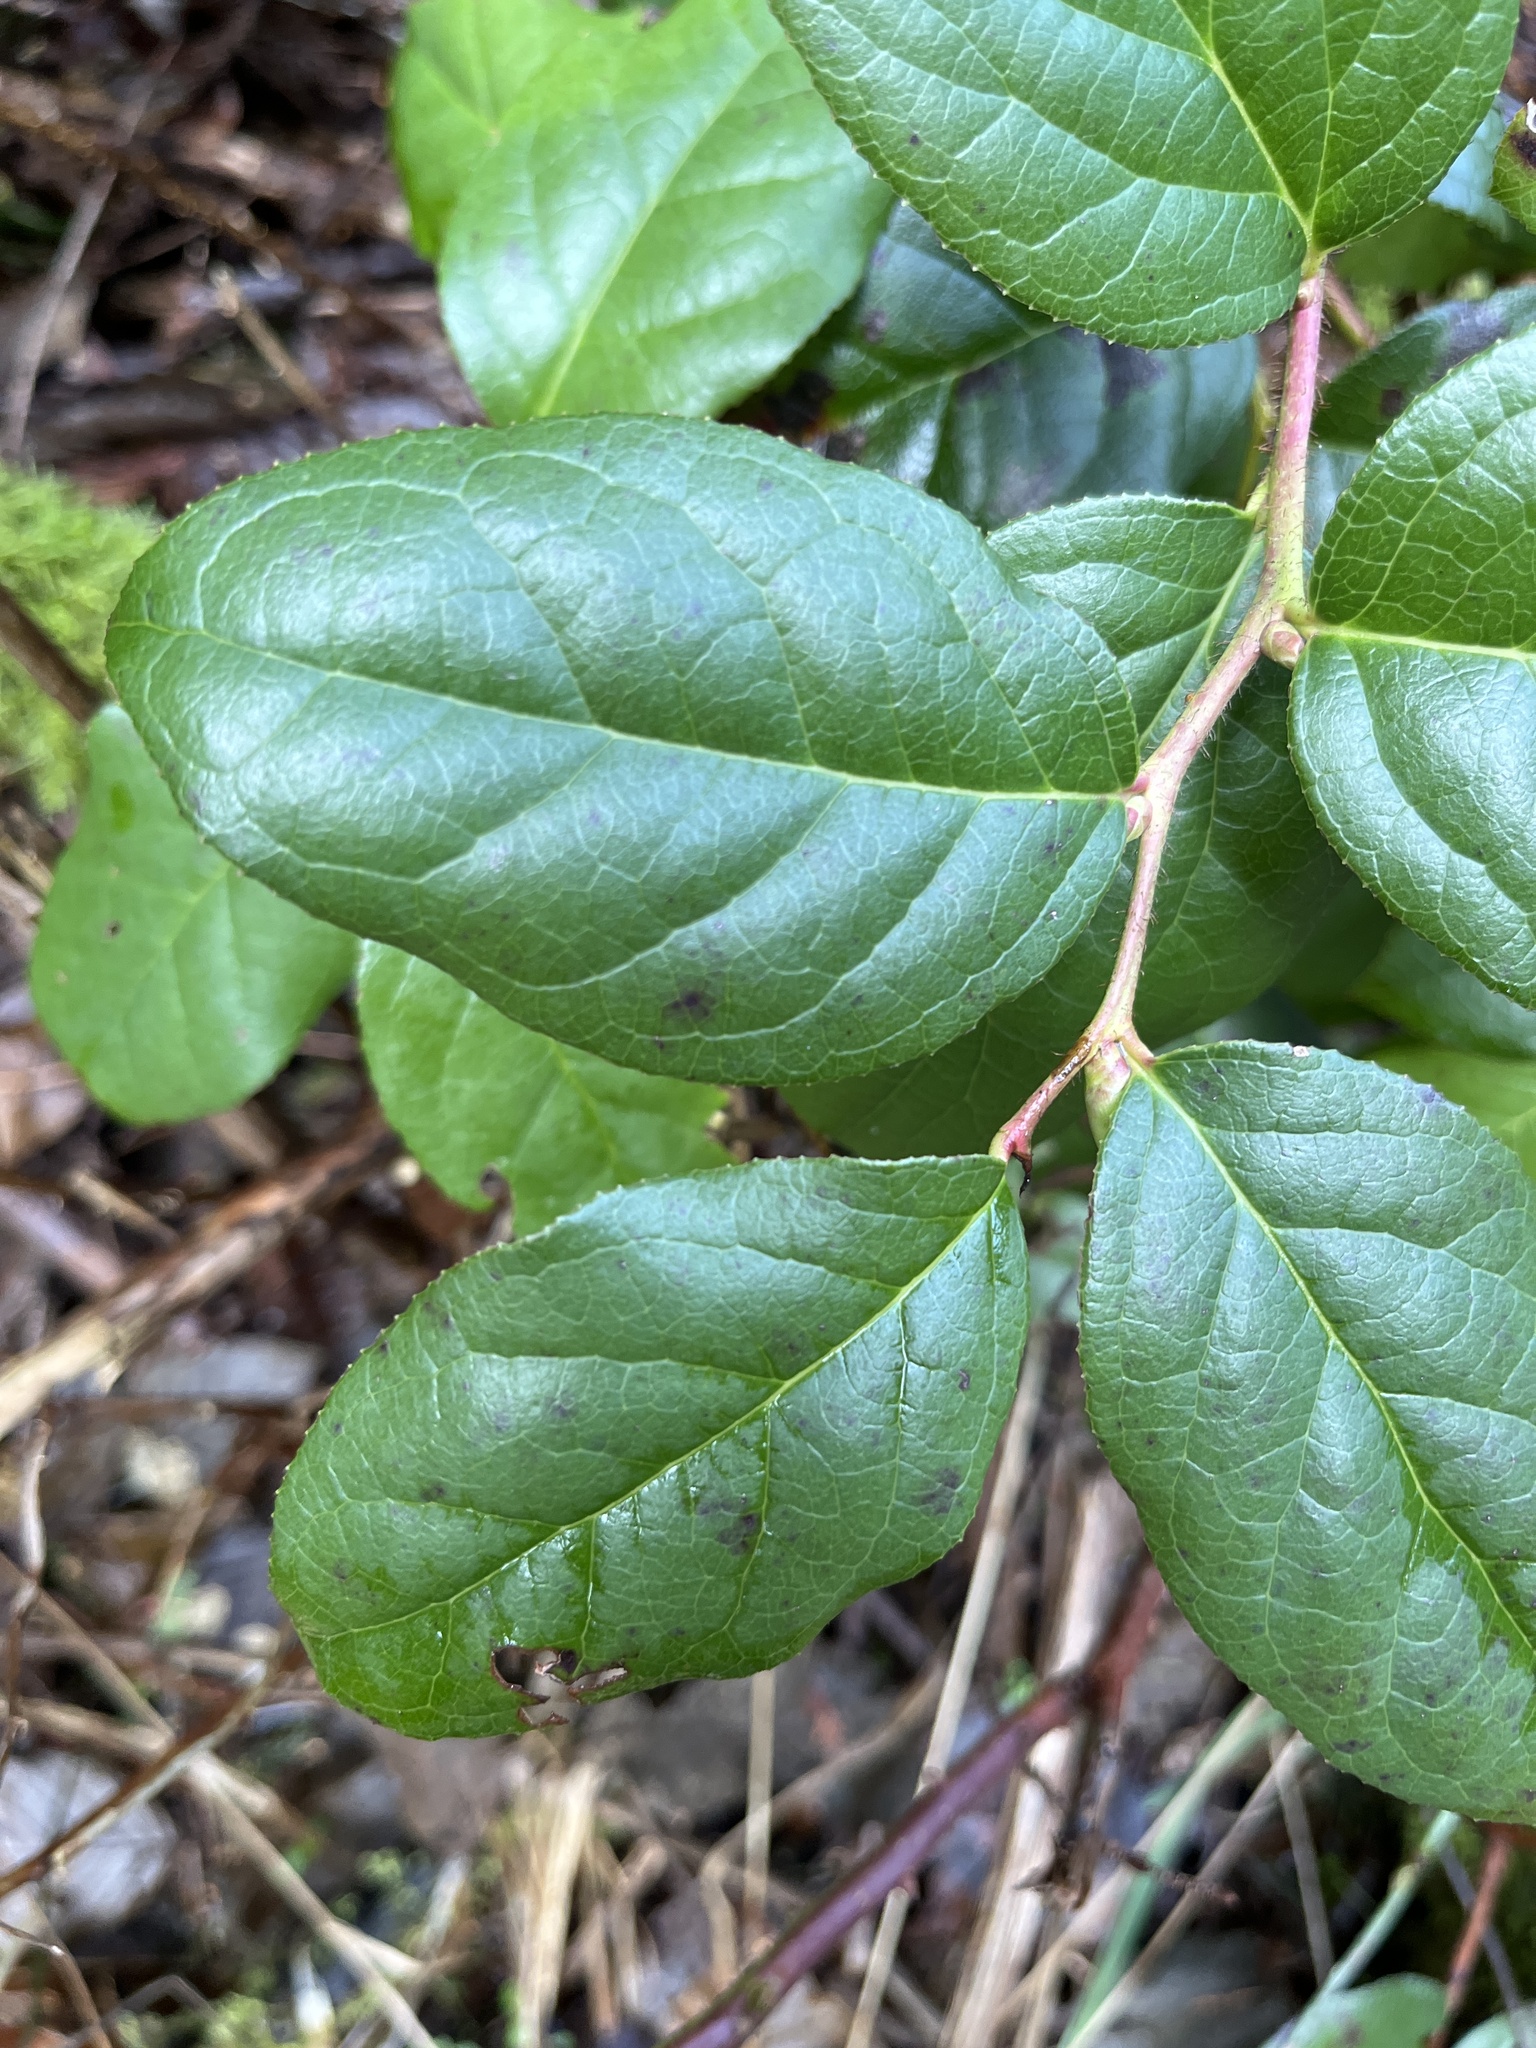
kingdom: Plantae
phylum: Tracheophyta
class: Magnoliopsida
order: Ericales
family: Ericaceae
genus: Gaultheria
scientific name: Gaultheria shallon
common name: Shallon
